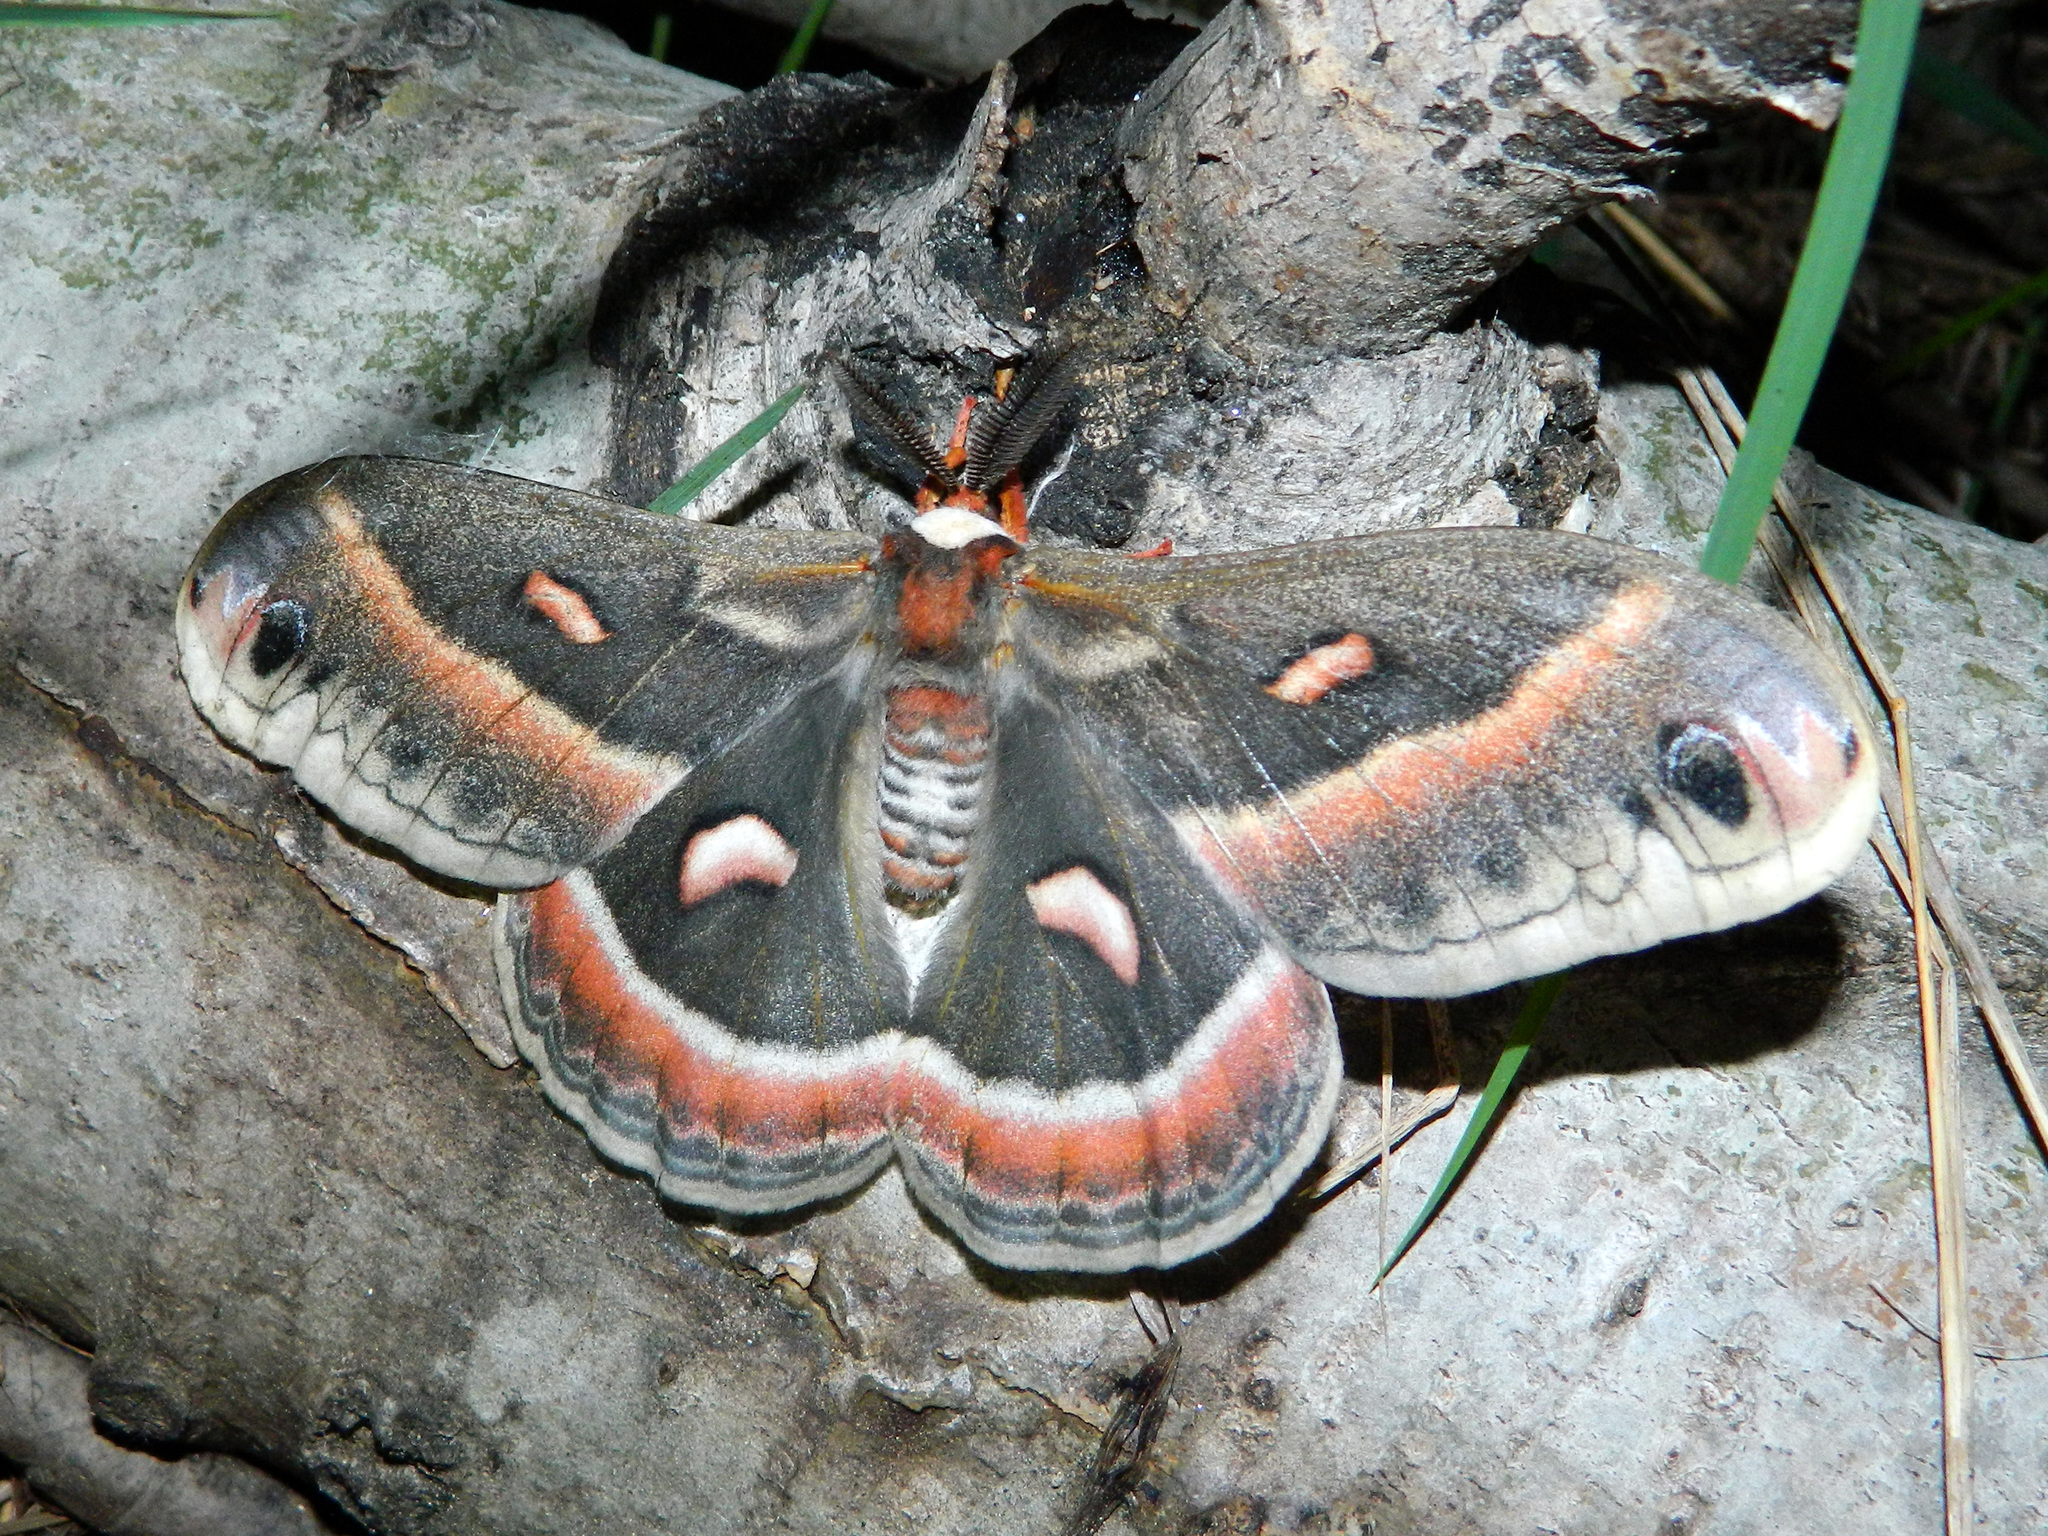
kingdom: Animalia
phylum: Arthropoda
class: Insecta
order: Lepidoptera
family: Saturniidae
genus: Hyalophora
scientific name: Hyalophora cecropia
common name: Cecropia silkmoth
